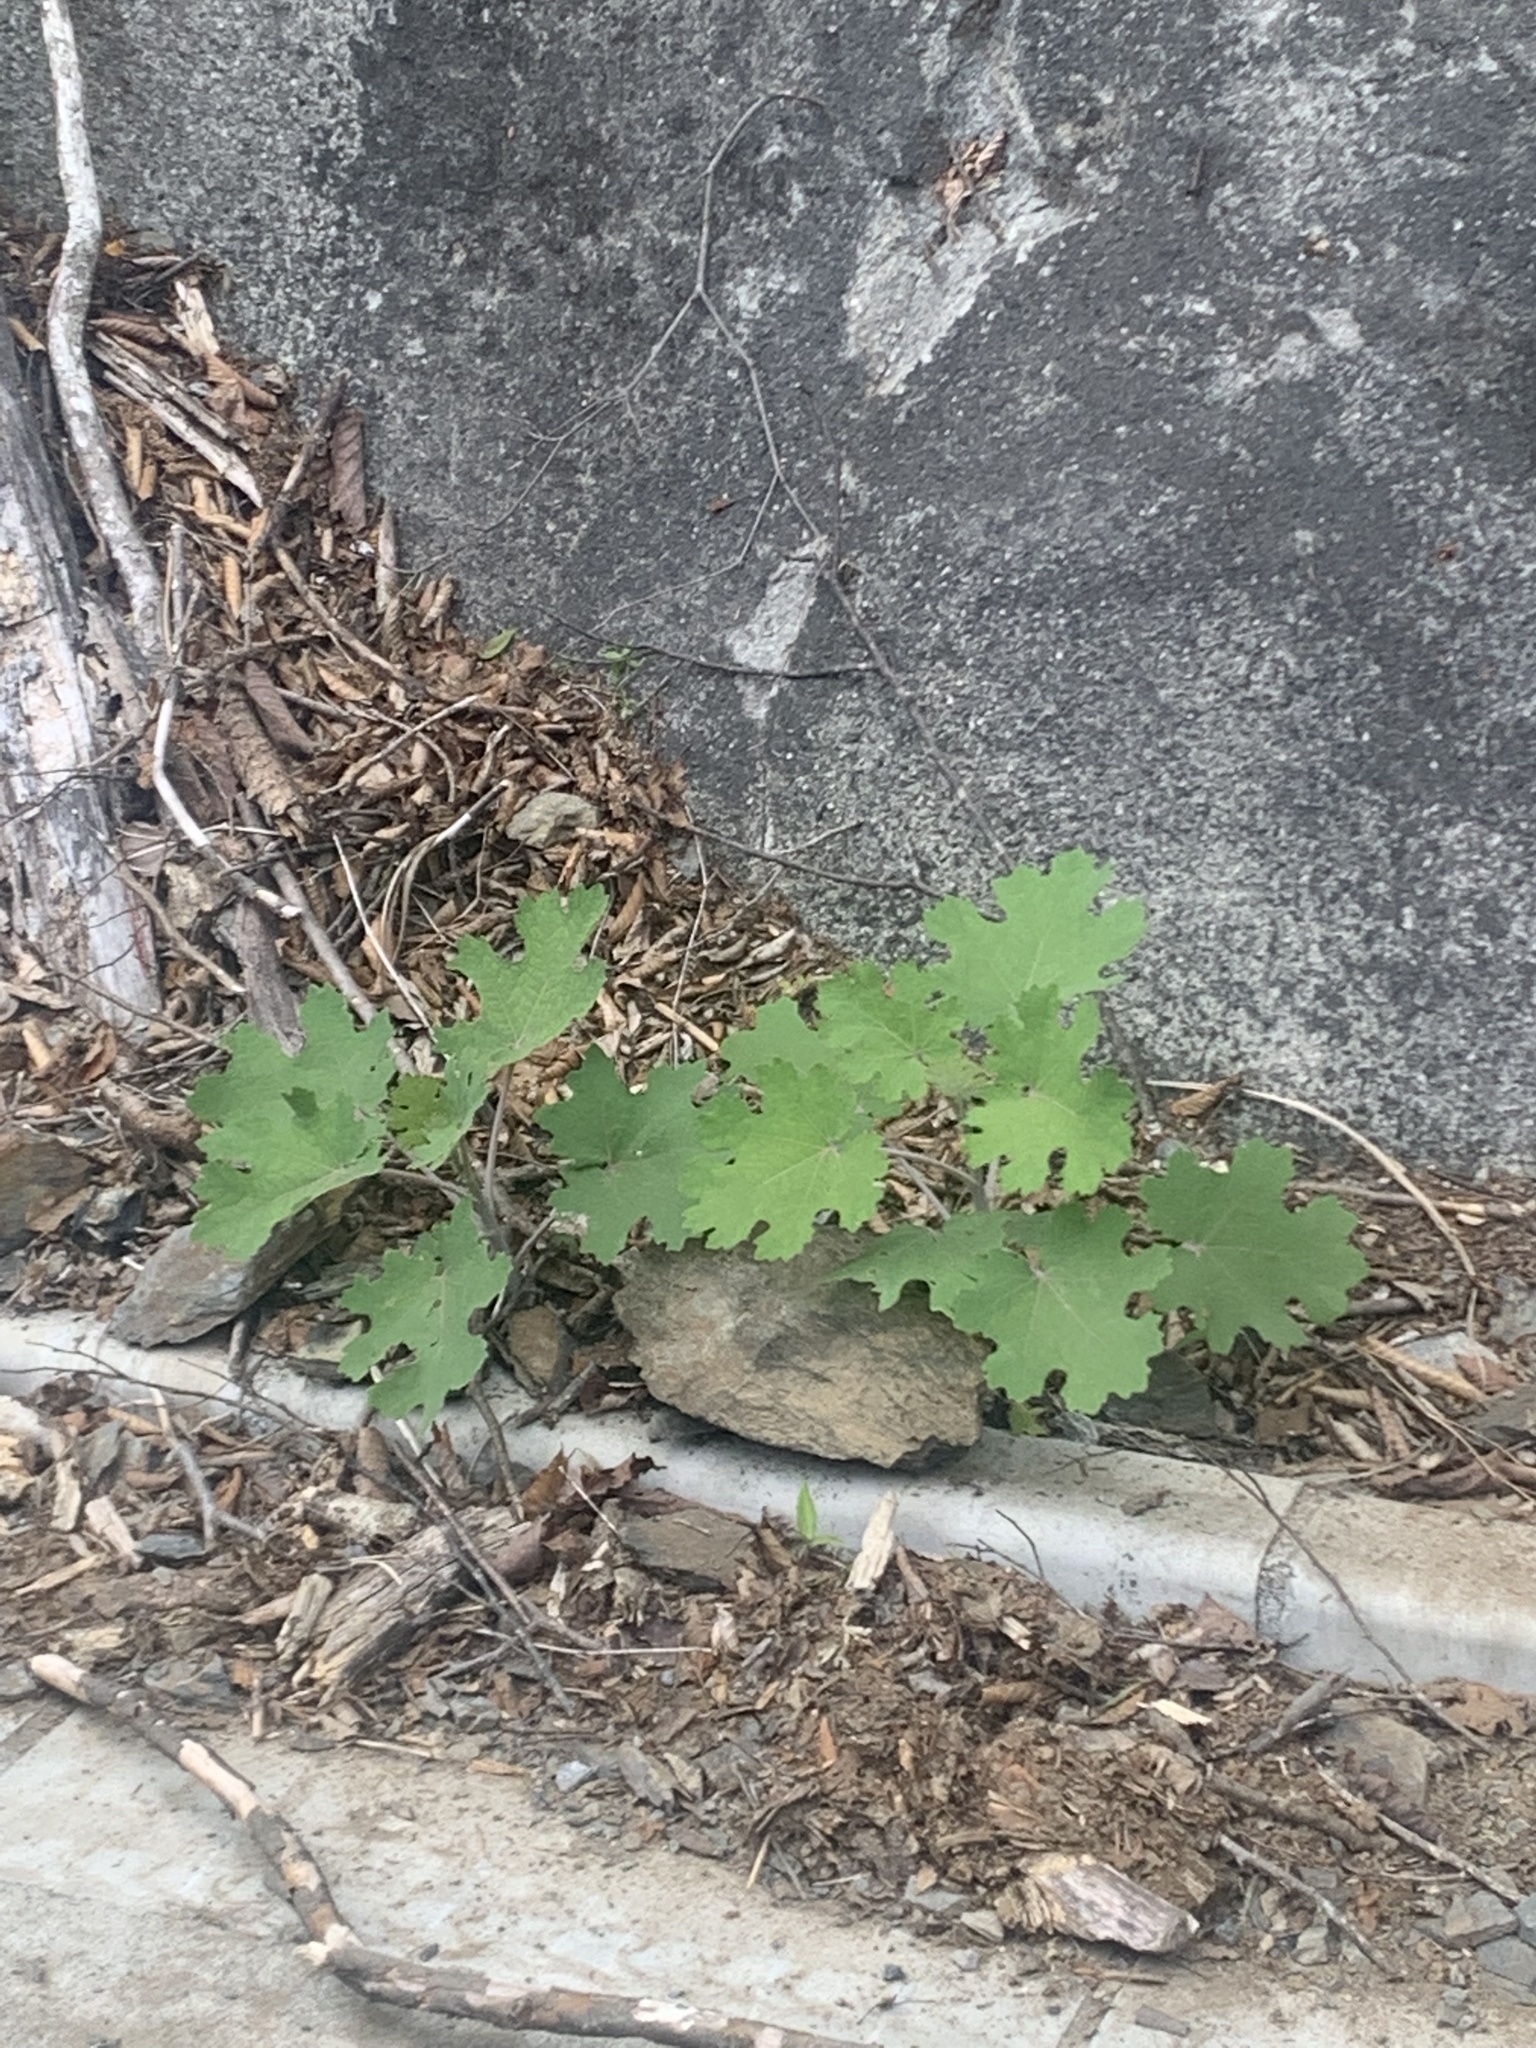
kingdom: Plantae
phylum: Tracheophyta
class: Magnoliopsida
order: Ranunculales
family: Papaveraceae
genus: Macleaya
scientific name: Macleaya cordata
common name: Plume poppy
